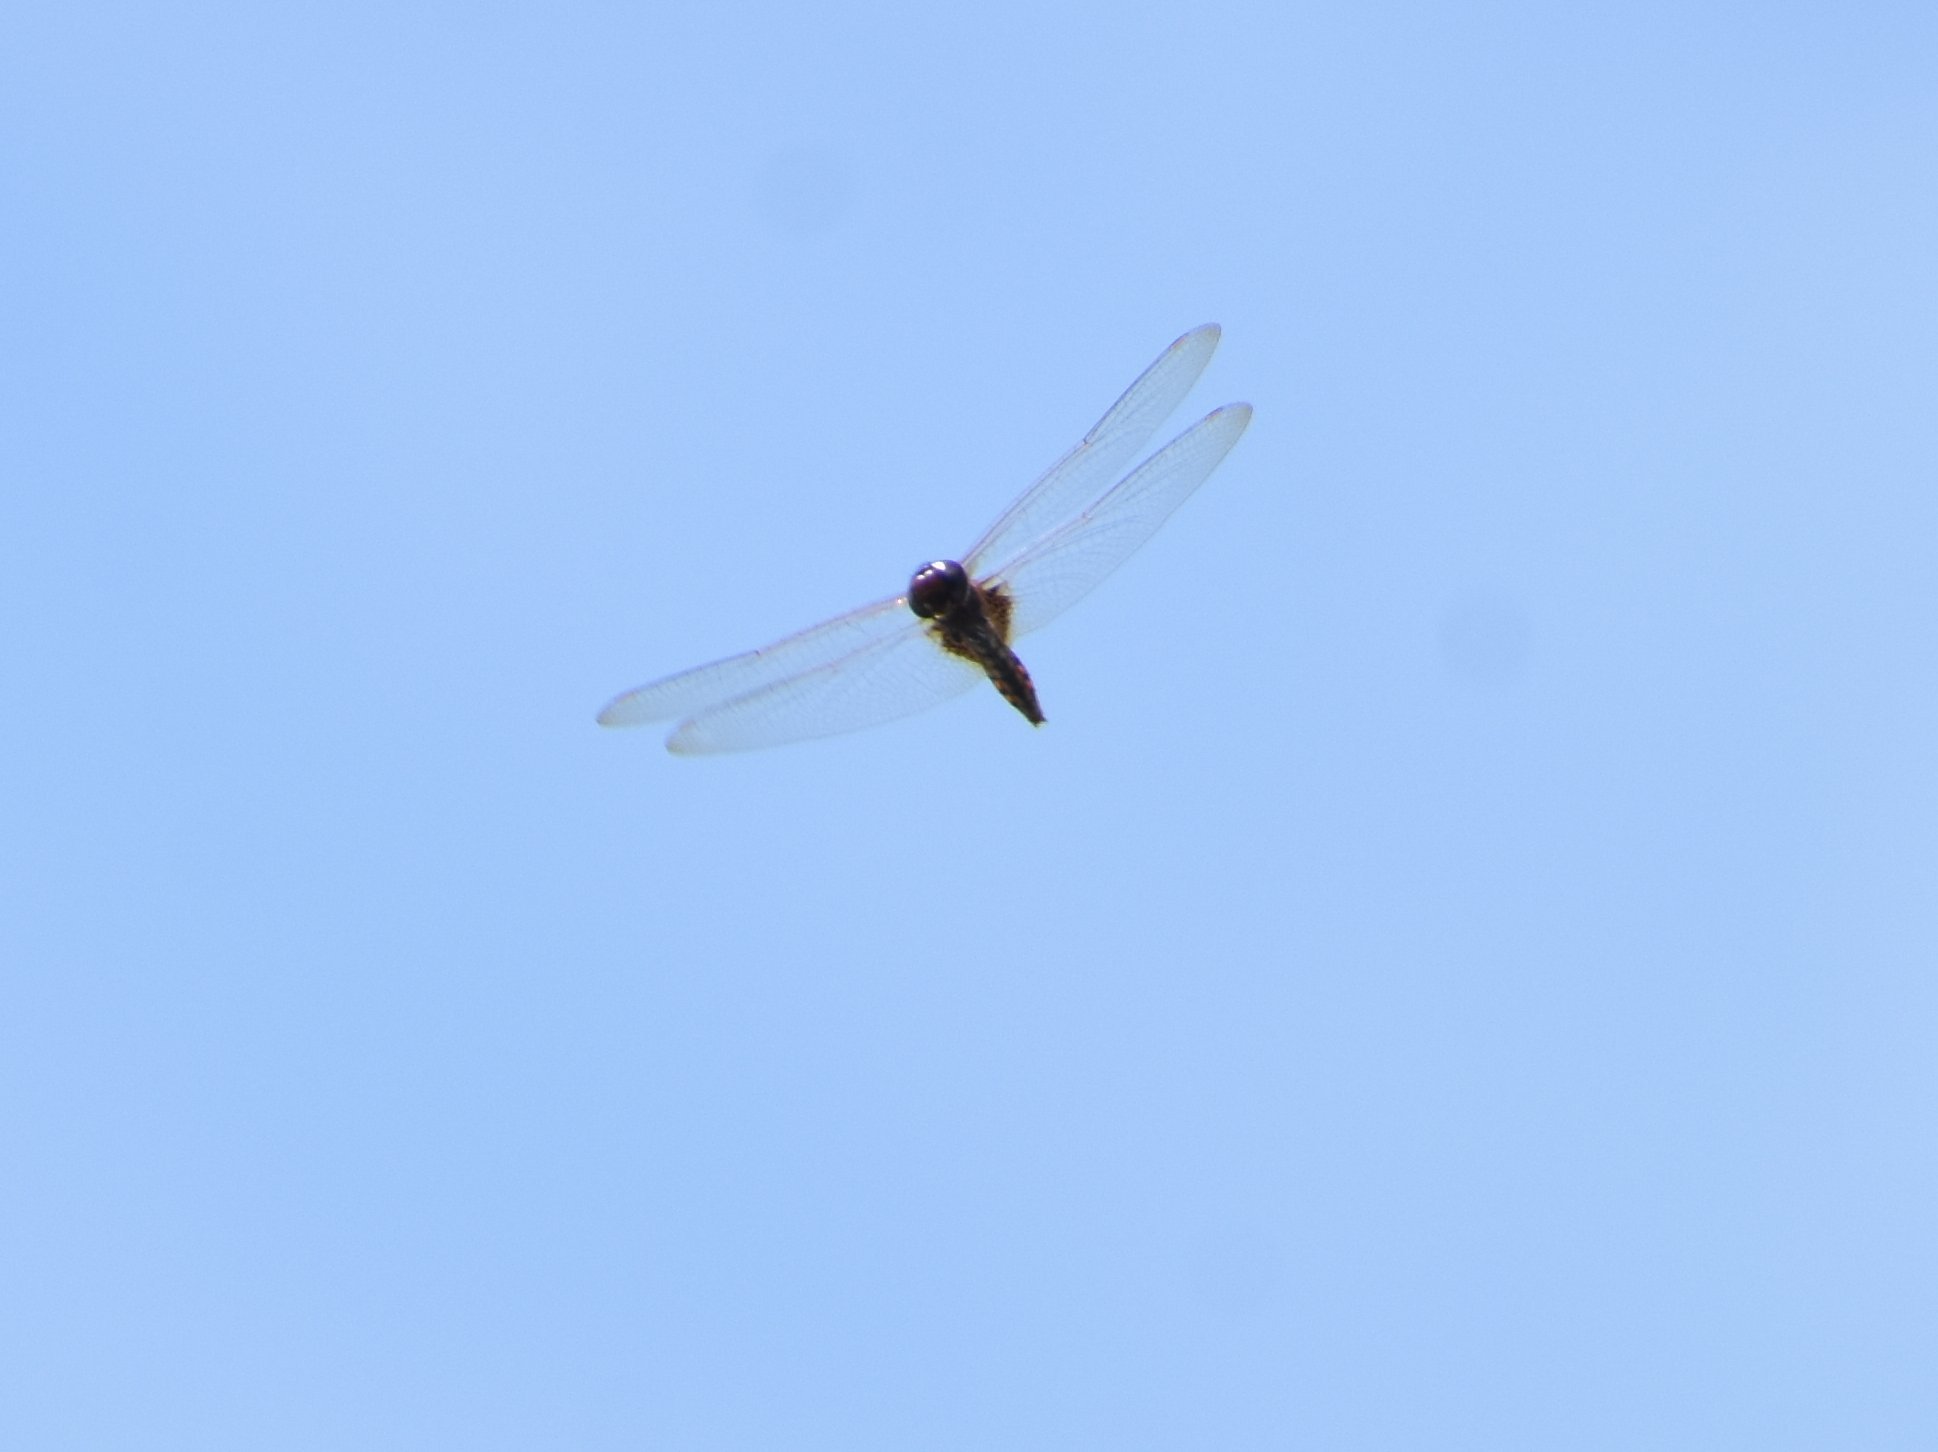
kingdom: Animalia
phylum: Arthropoda
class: Insecta
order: Odonata
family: Libellulidae
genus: Miathyria
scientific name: Miathyria marcella
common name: Hyacinth glider
